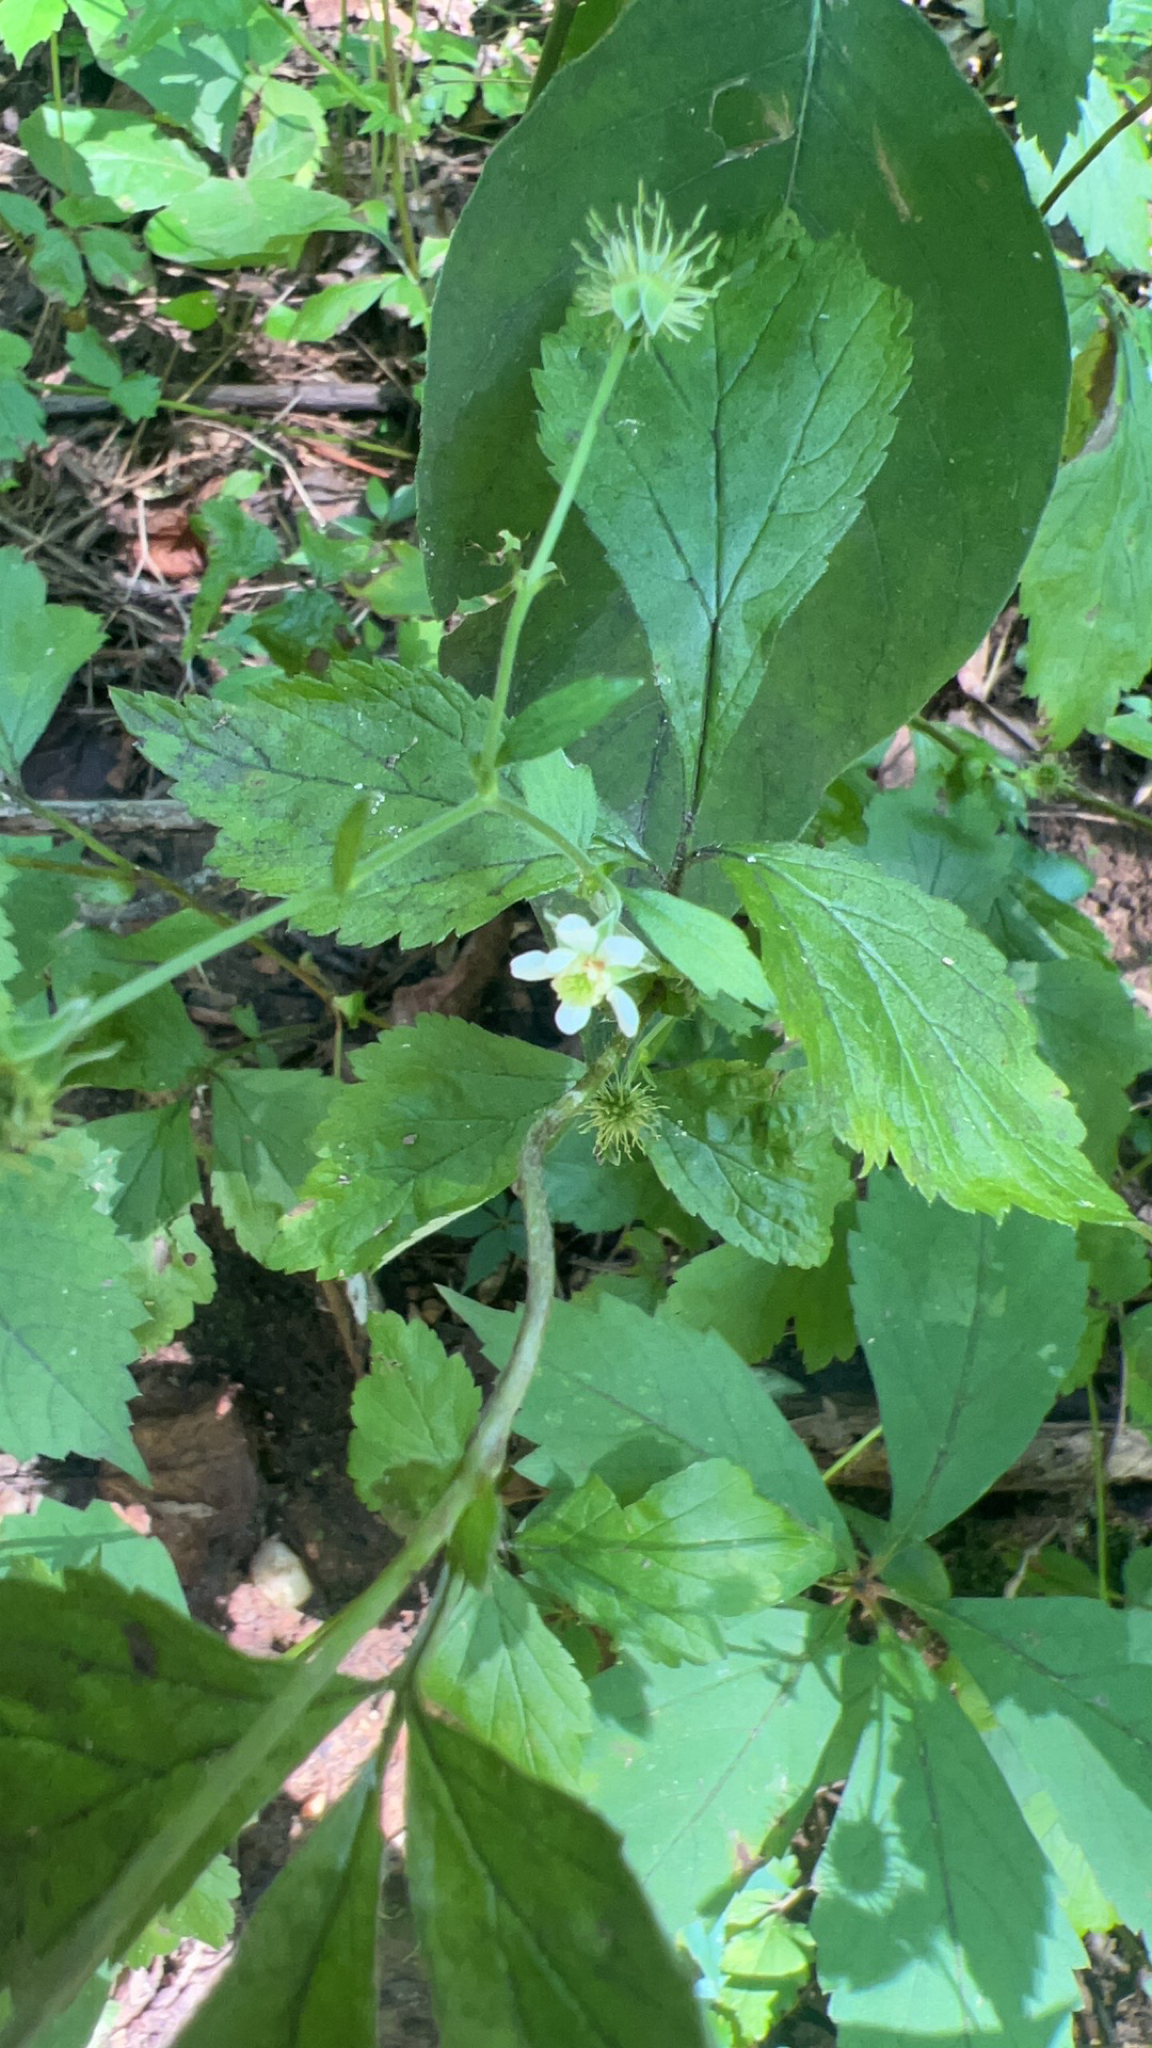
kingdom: Plantae
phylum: Tracheophyta
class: Magnoliopsida
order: Rosales
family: Rosaceae
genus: Geum
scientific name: Geum canadense
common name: White avens
